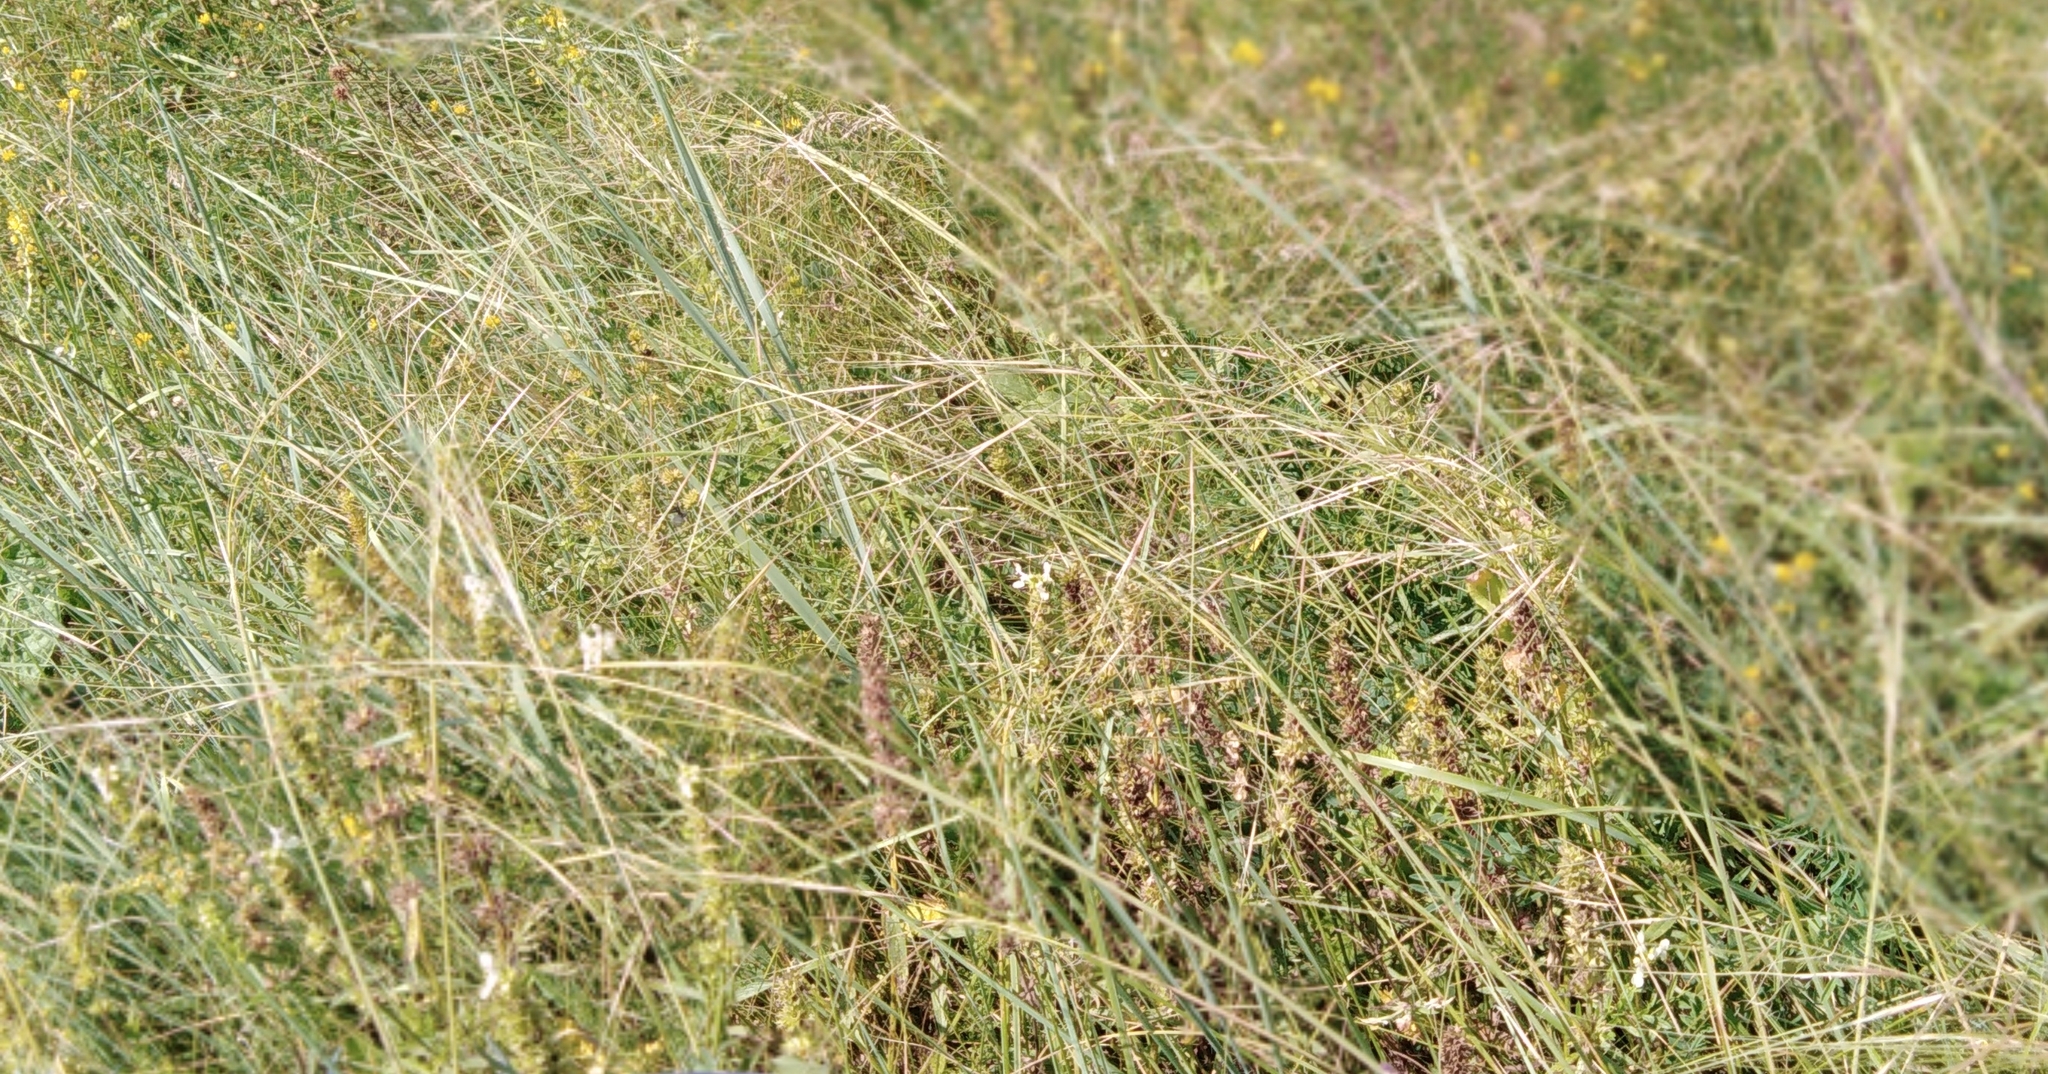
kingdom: Plantae
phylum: Tracheophyta
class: Liliopsida
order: Poales
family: Poaceae
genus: Stipa
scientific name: Stipa capillata
